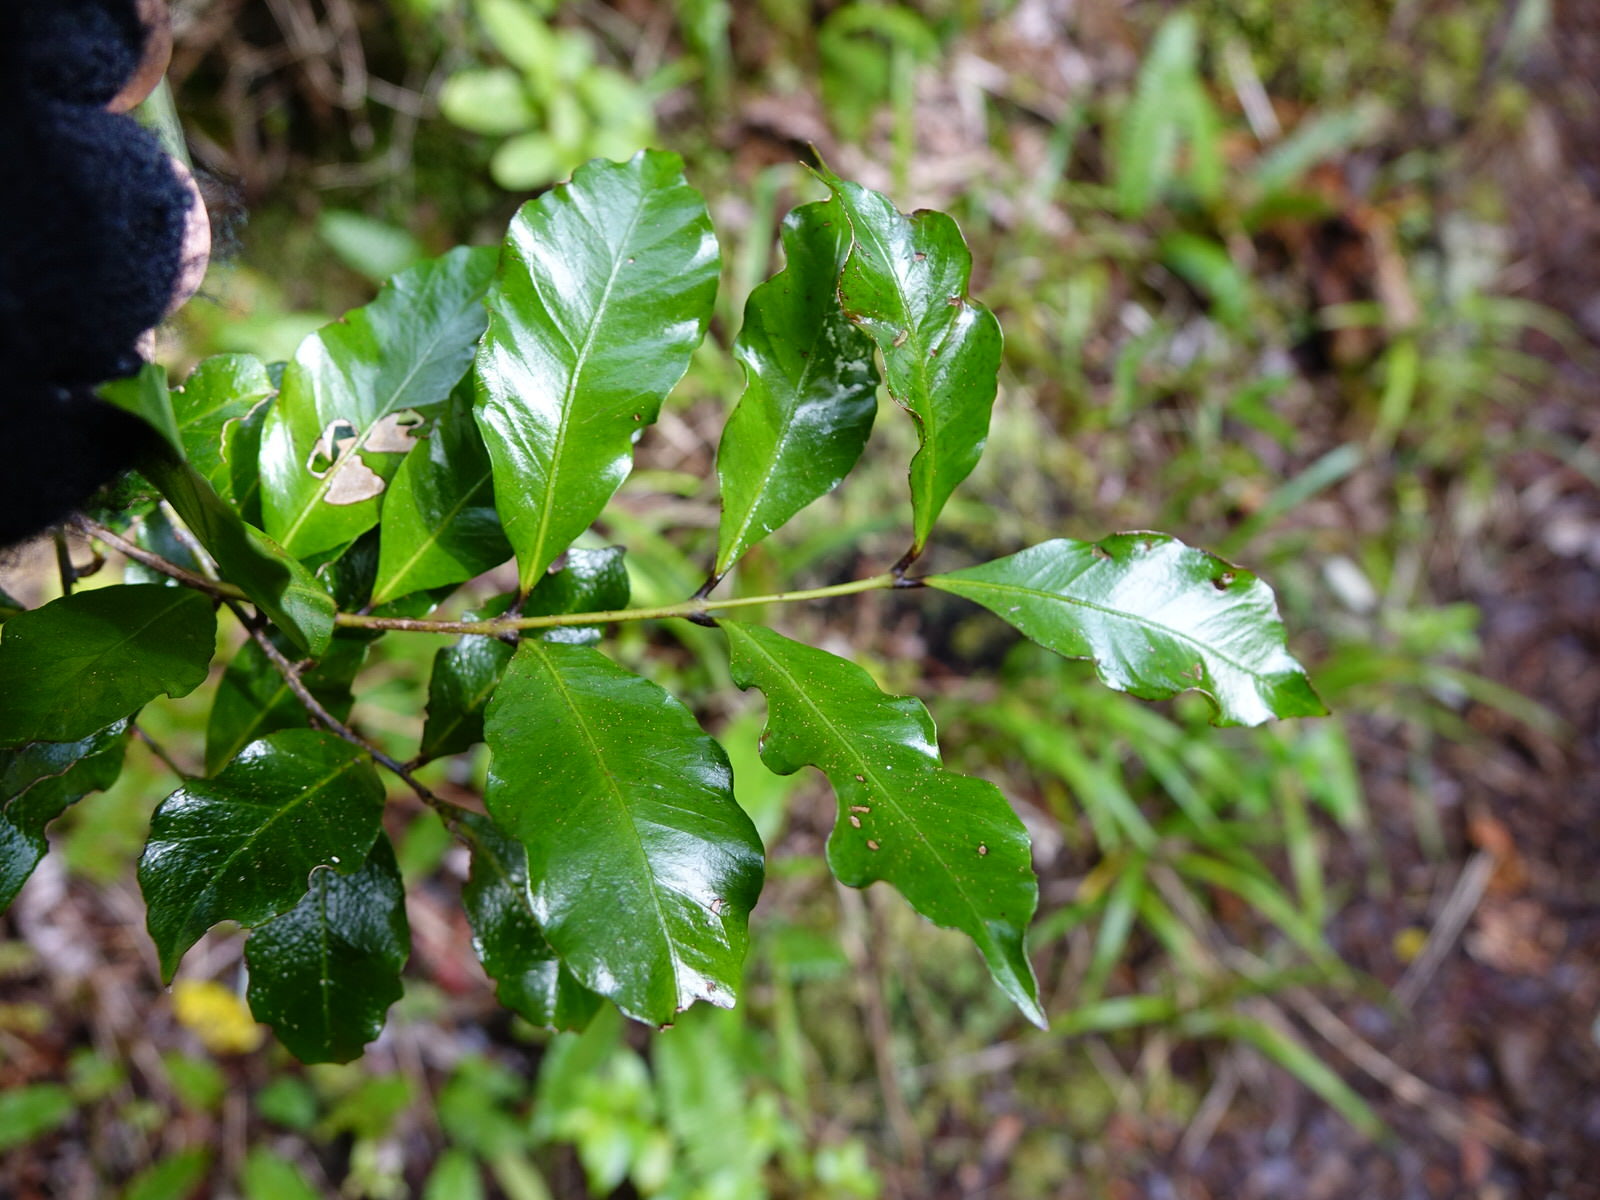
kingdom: Plantae
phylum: Tracheophyta
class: Magnoliopsida
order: Santalales
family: Nanodeaceae
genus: Mida
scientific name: Mida salicifolia
